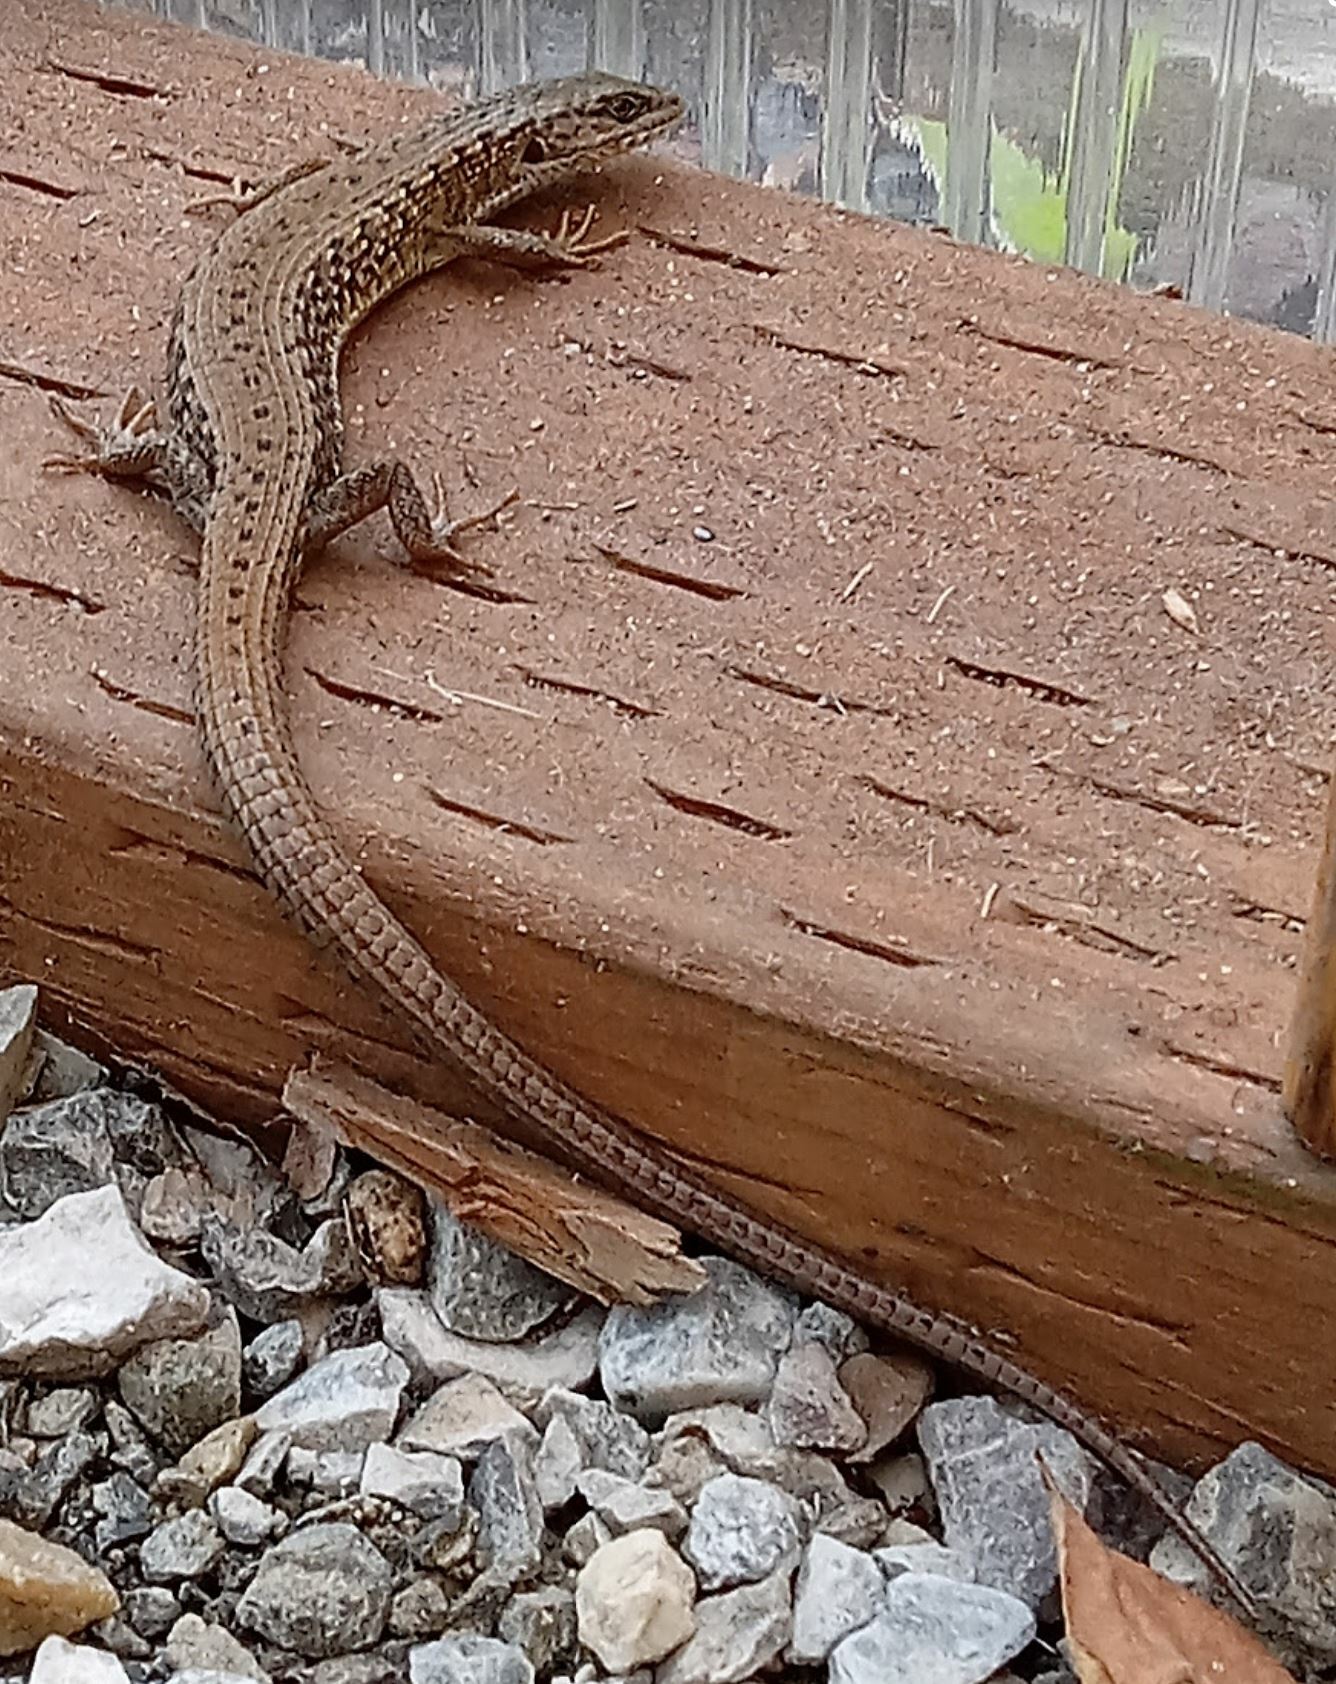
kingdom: Animalia
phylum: Chordata
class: Squamata
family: Anguidae
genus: Elgaria
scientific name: Elgaria coerulea
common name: Northern alligator lizard
